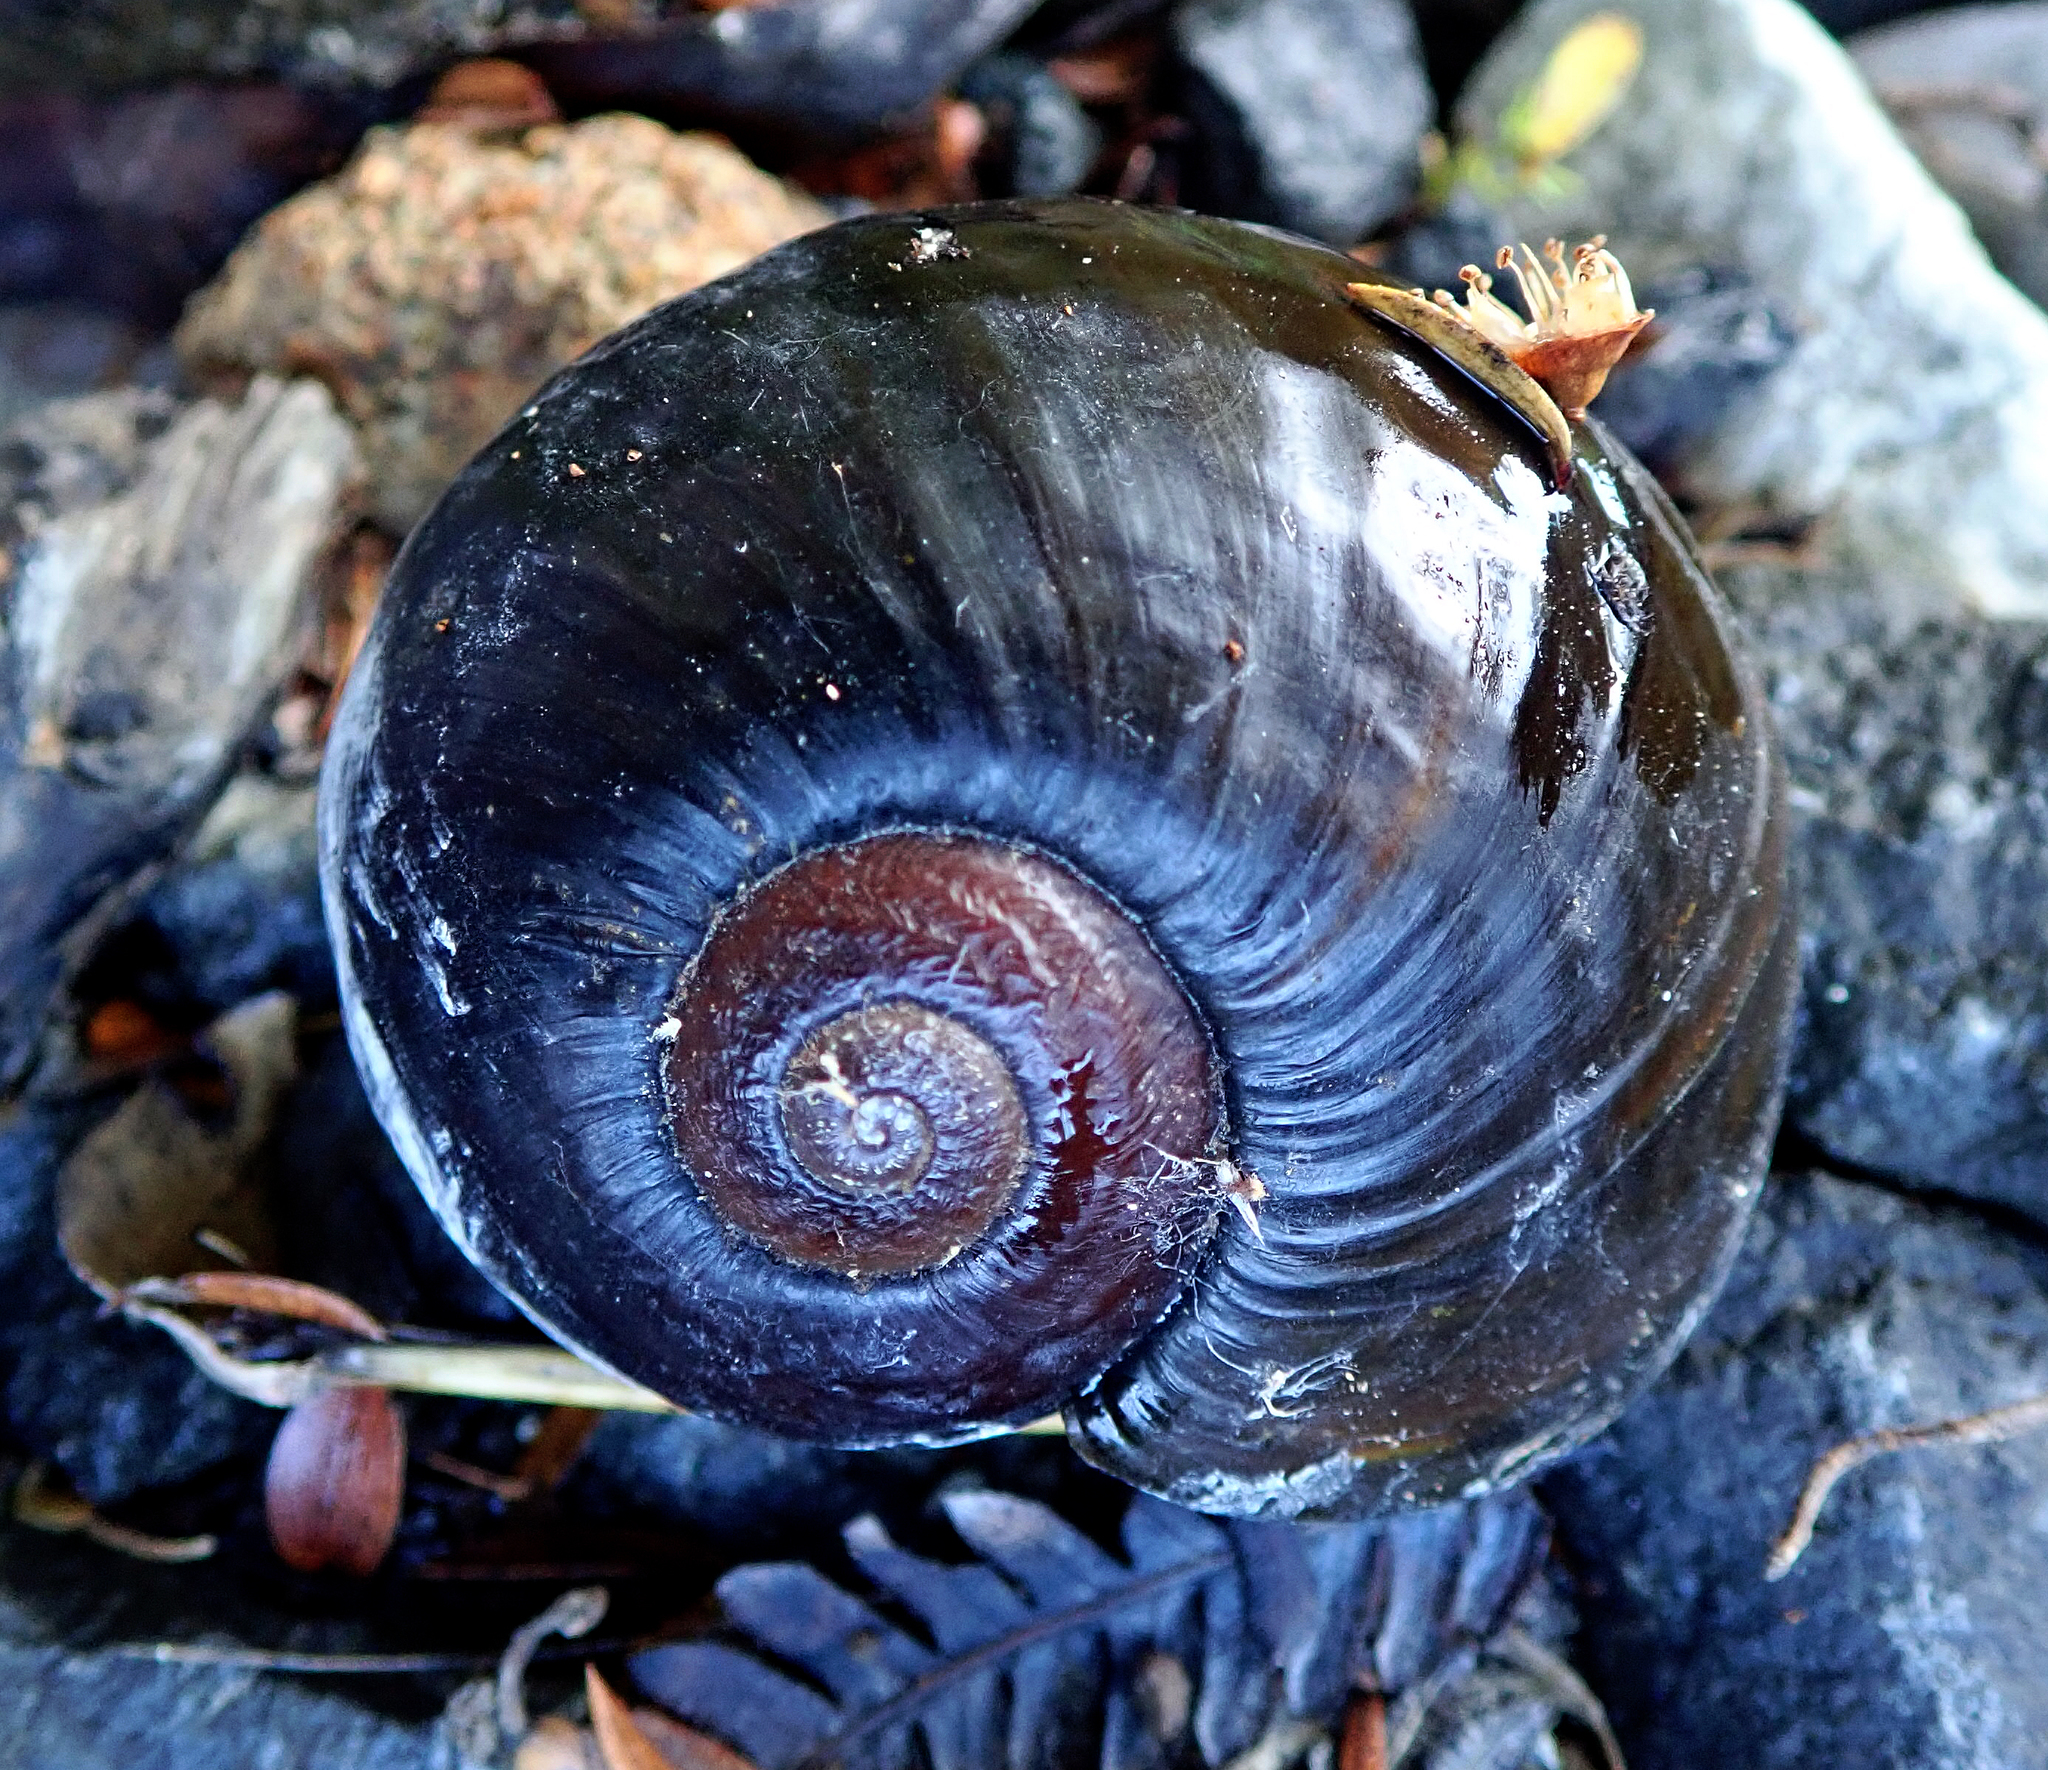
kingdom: Animalia
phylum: Mollusca
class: Gastropoda
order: Stylommatophora
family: Rhytididae
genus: Paryphanta
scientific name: Paryphanta busbyi
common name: Kauri snail
